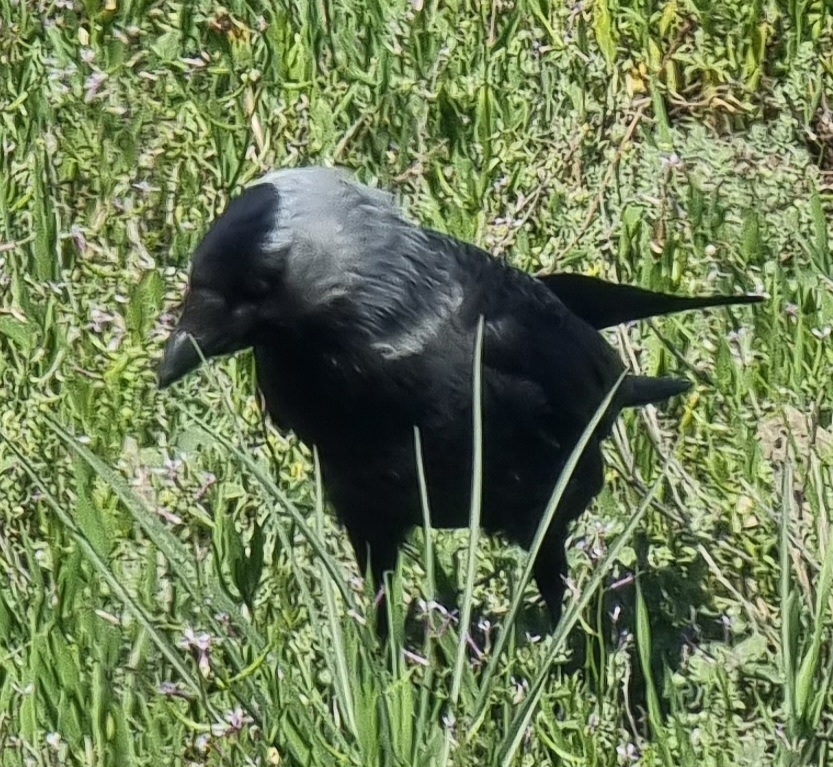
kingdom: Animalia
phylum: Chordata
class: Aves
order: Passeriformes
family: Corvidae
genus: Coloeus
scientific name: Coloeus monedula
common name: Western jackdaw
